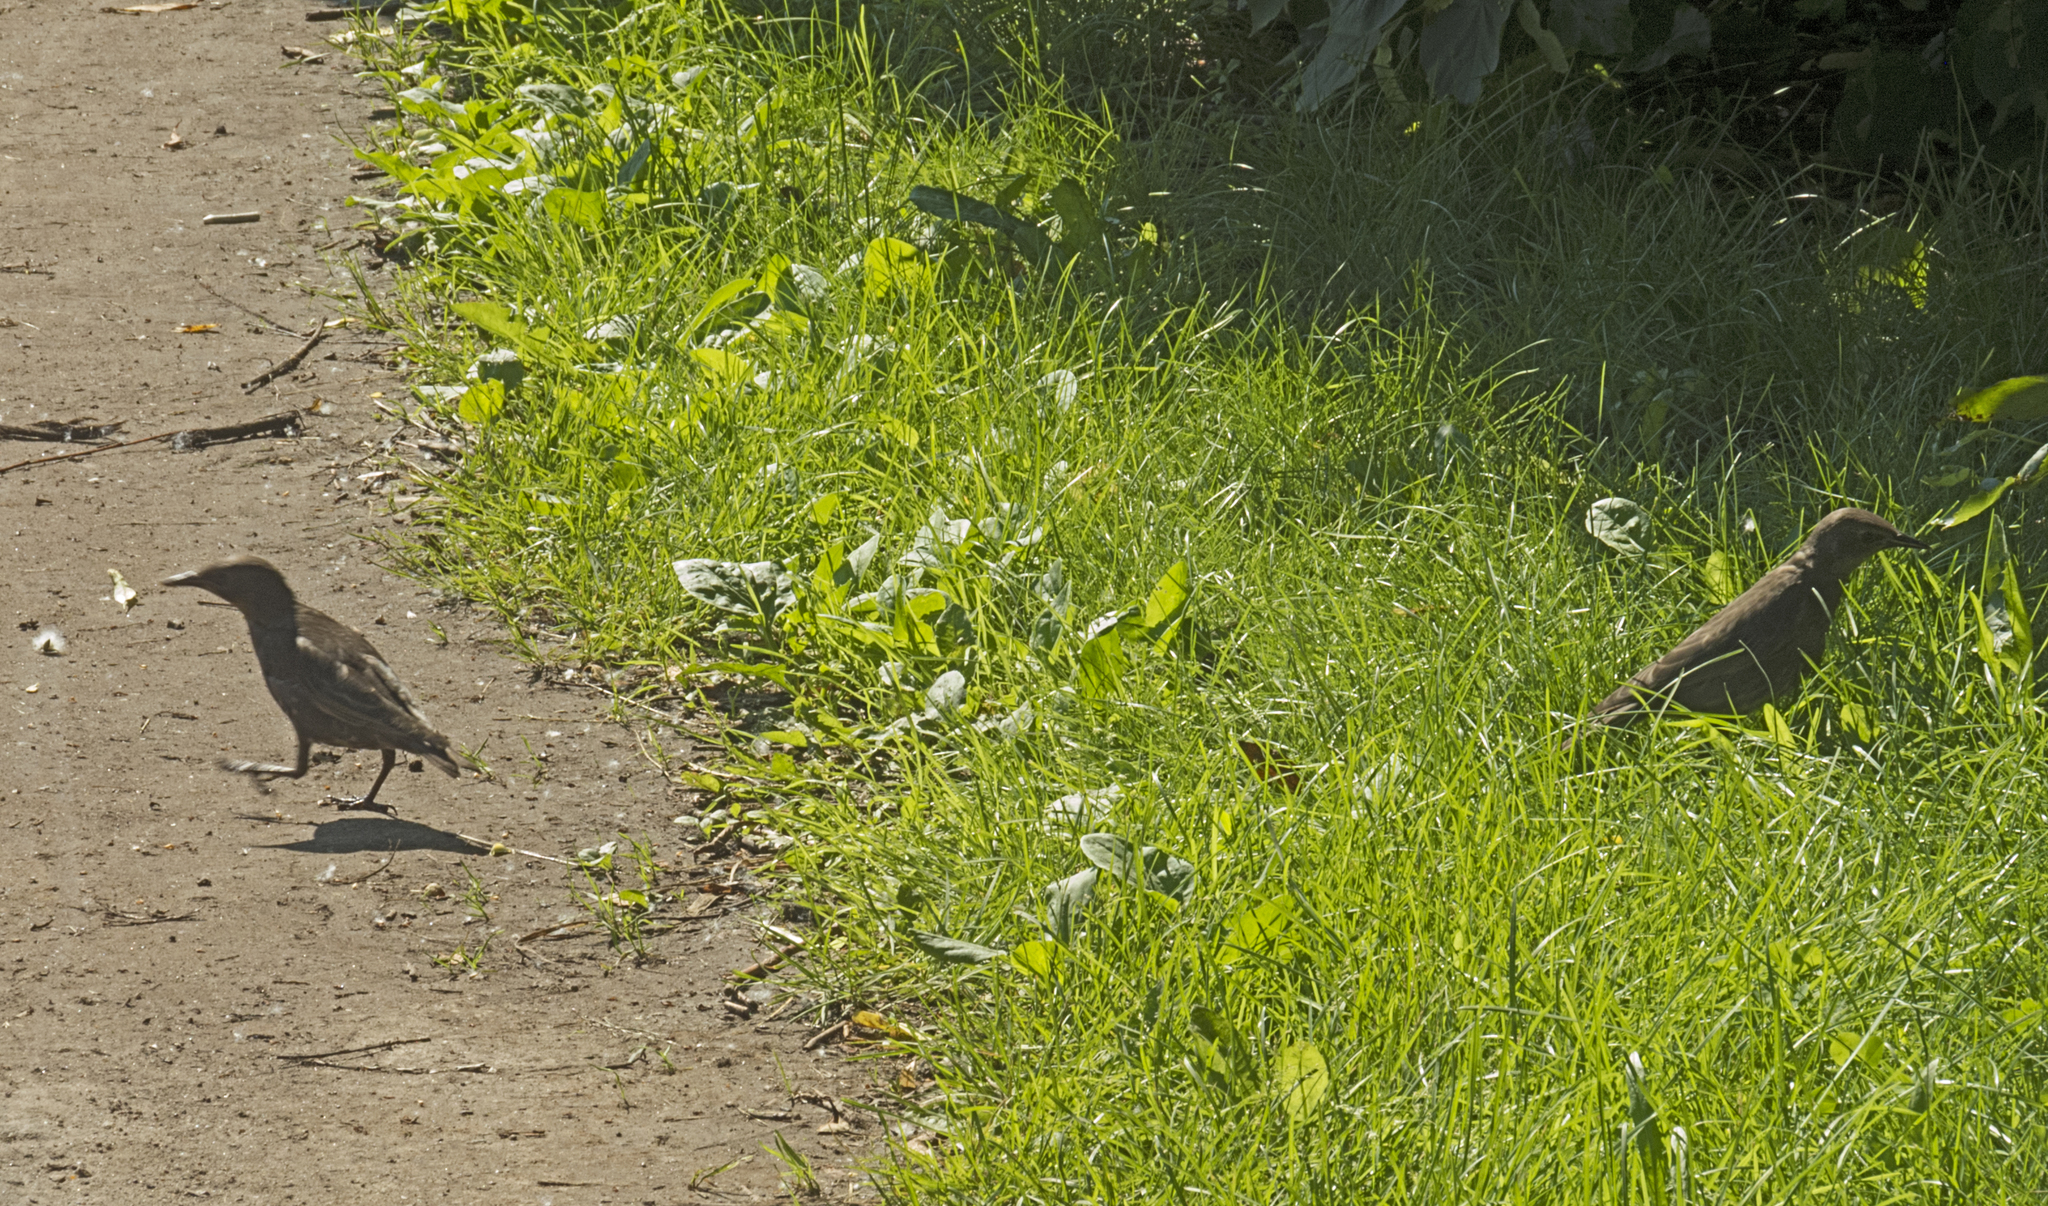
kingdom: Animalia
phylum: Chordata
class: Aves
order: Passeriformes
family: Sturnidae
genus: Sturnus
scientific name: Sturnus vulgaris
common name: Common starling
